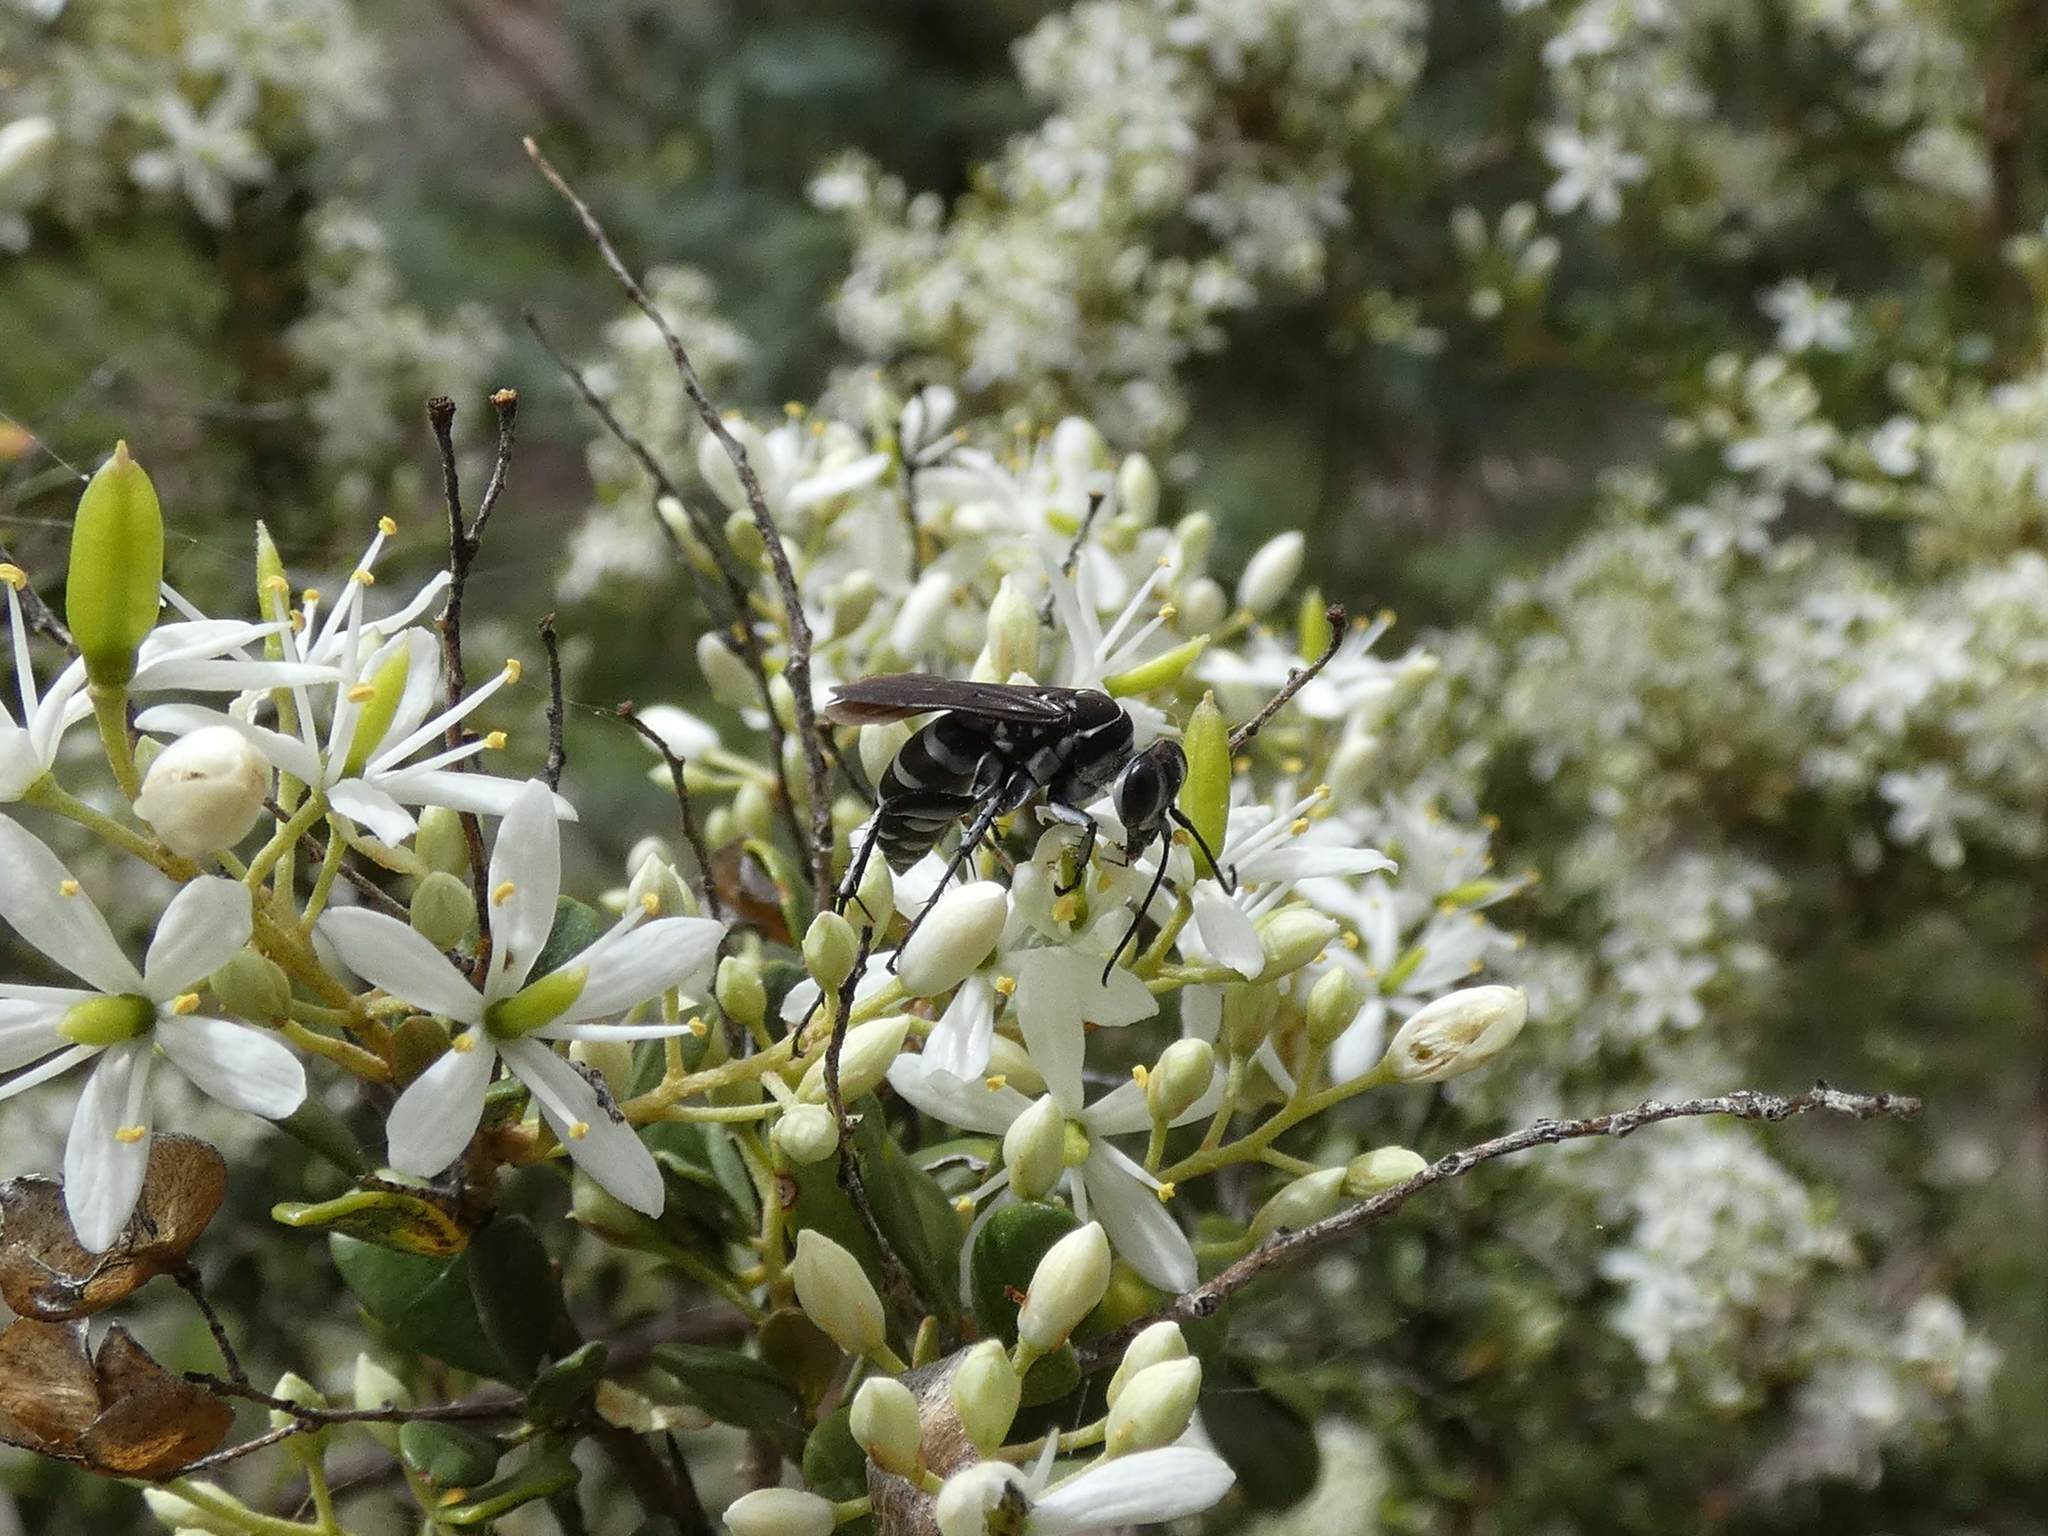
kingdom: Plantae
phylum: Tracheophyta
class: Magnoliopsida
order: Apiales
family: Pittosporaceae
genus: Bursaria
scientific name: Bursaria spinosa
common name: Australian blackthorn
